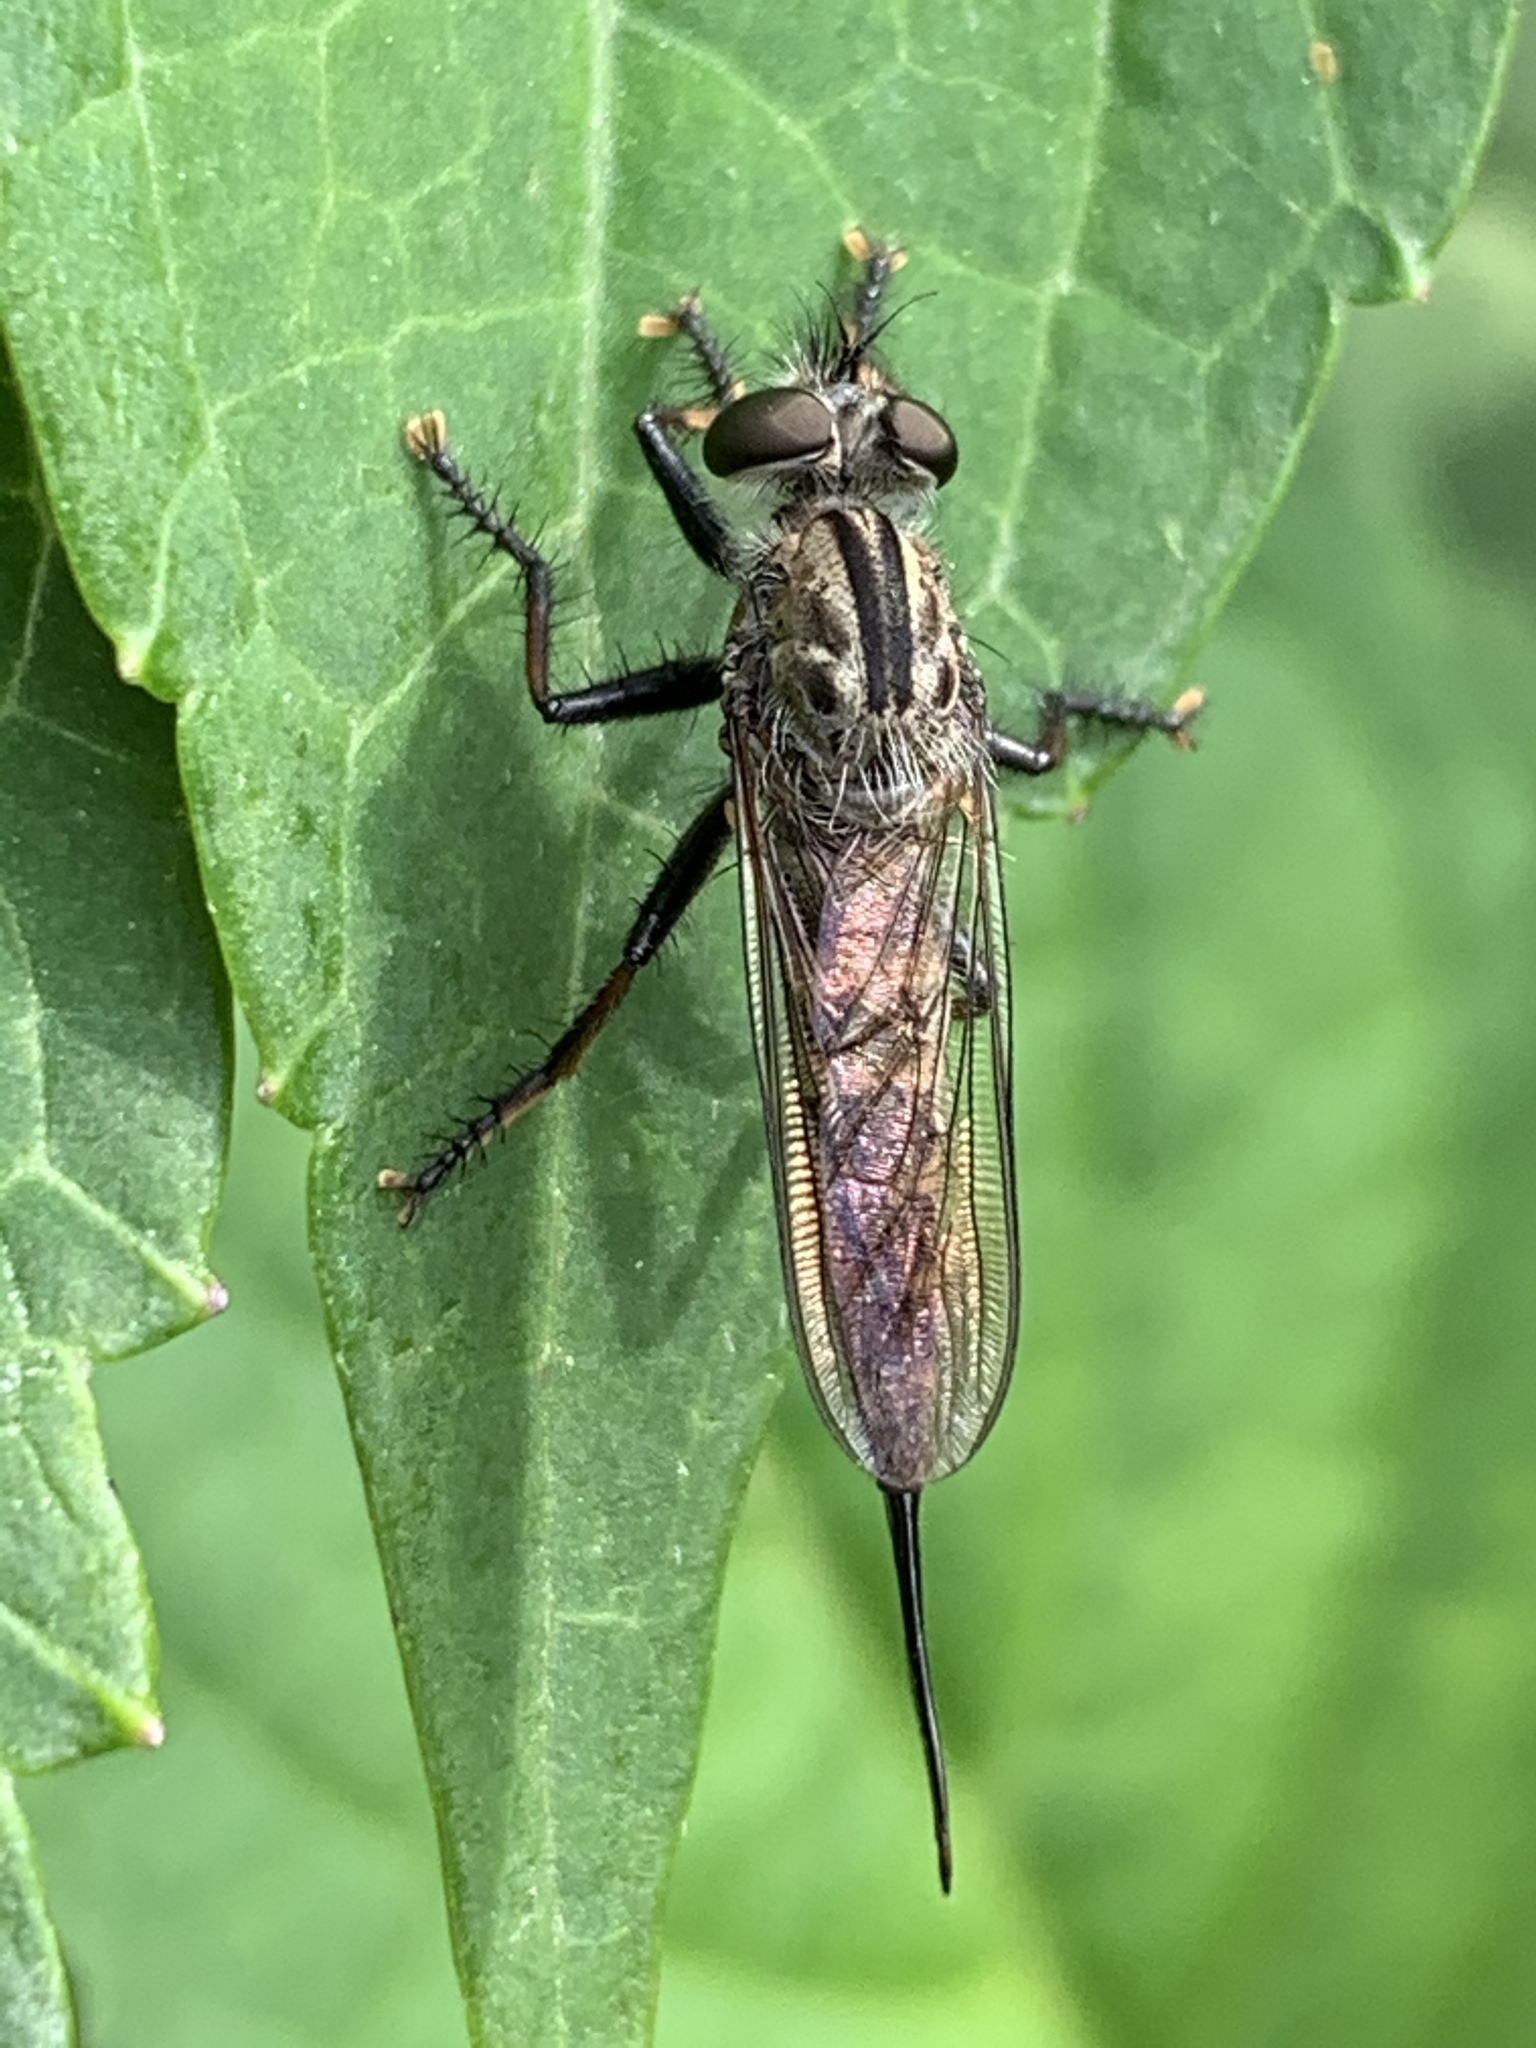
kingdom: Animalia
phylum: Arthropoda
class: Insecta
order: Diptera
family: Asilidae
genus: Efferia
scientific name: Efferia aestuans
